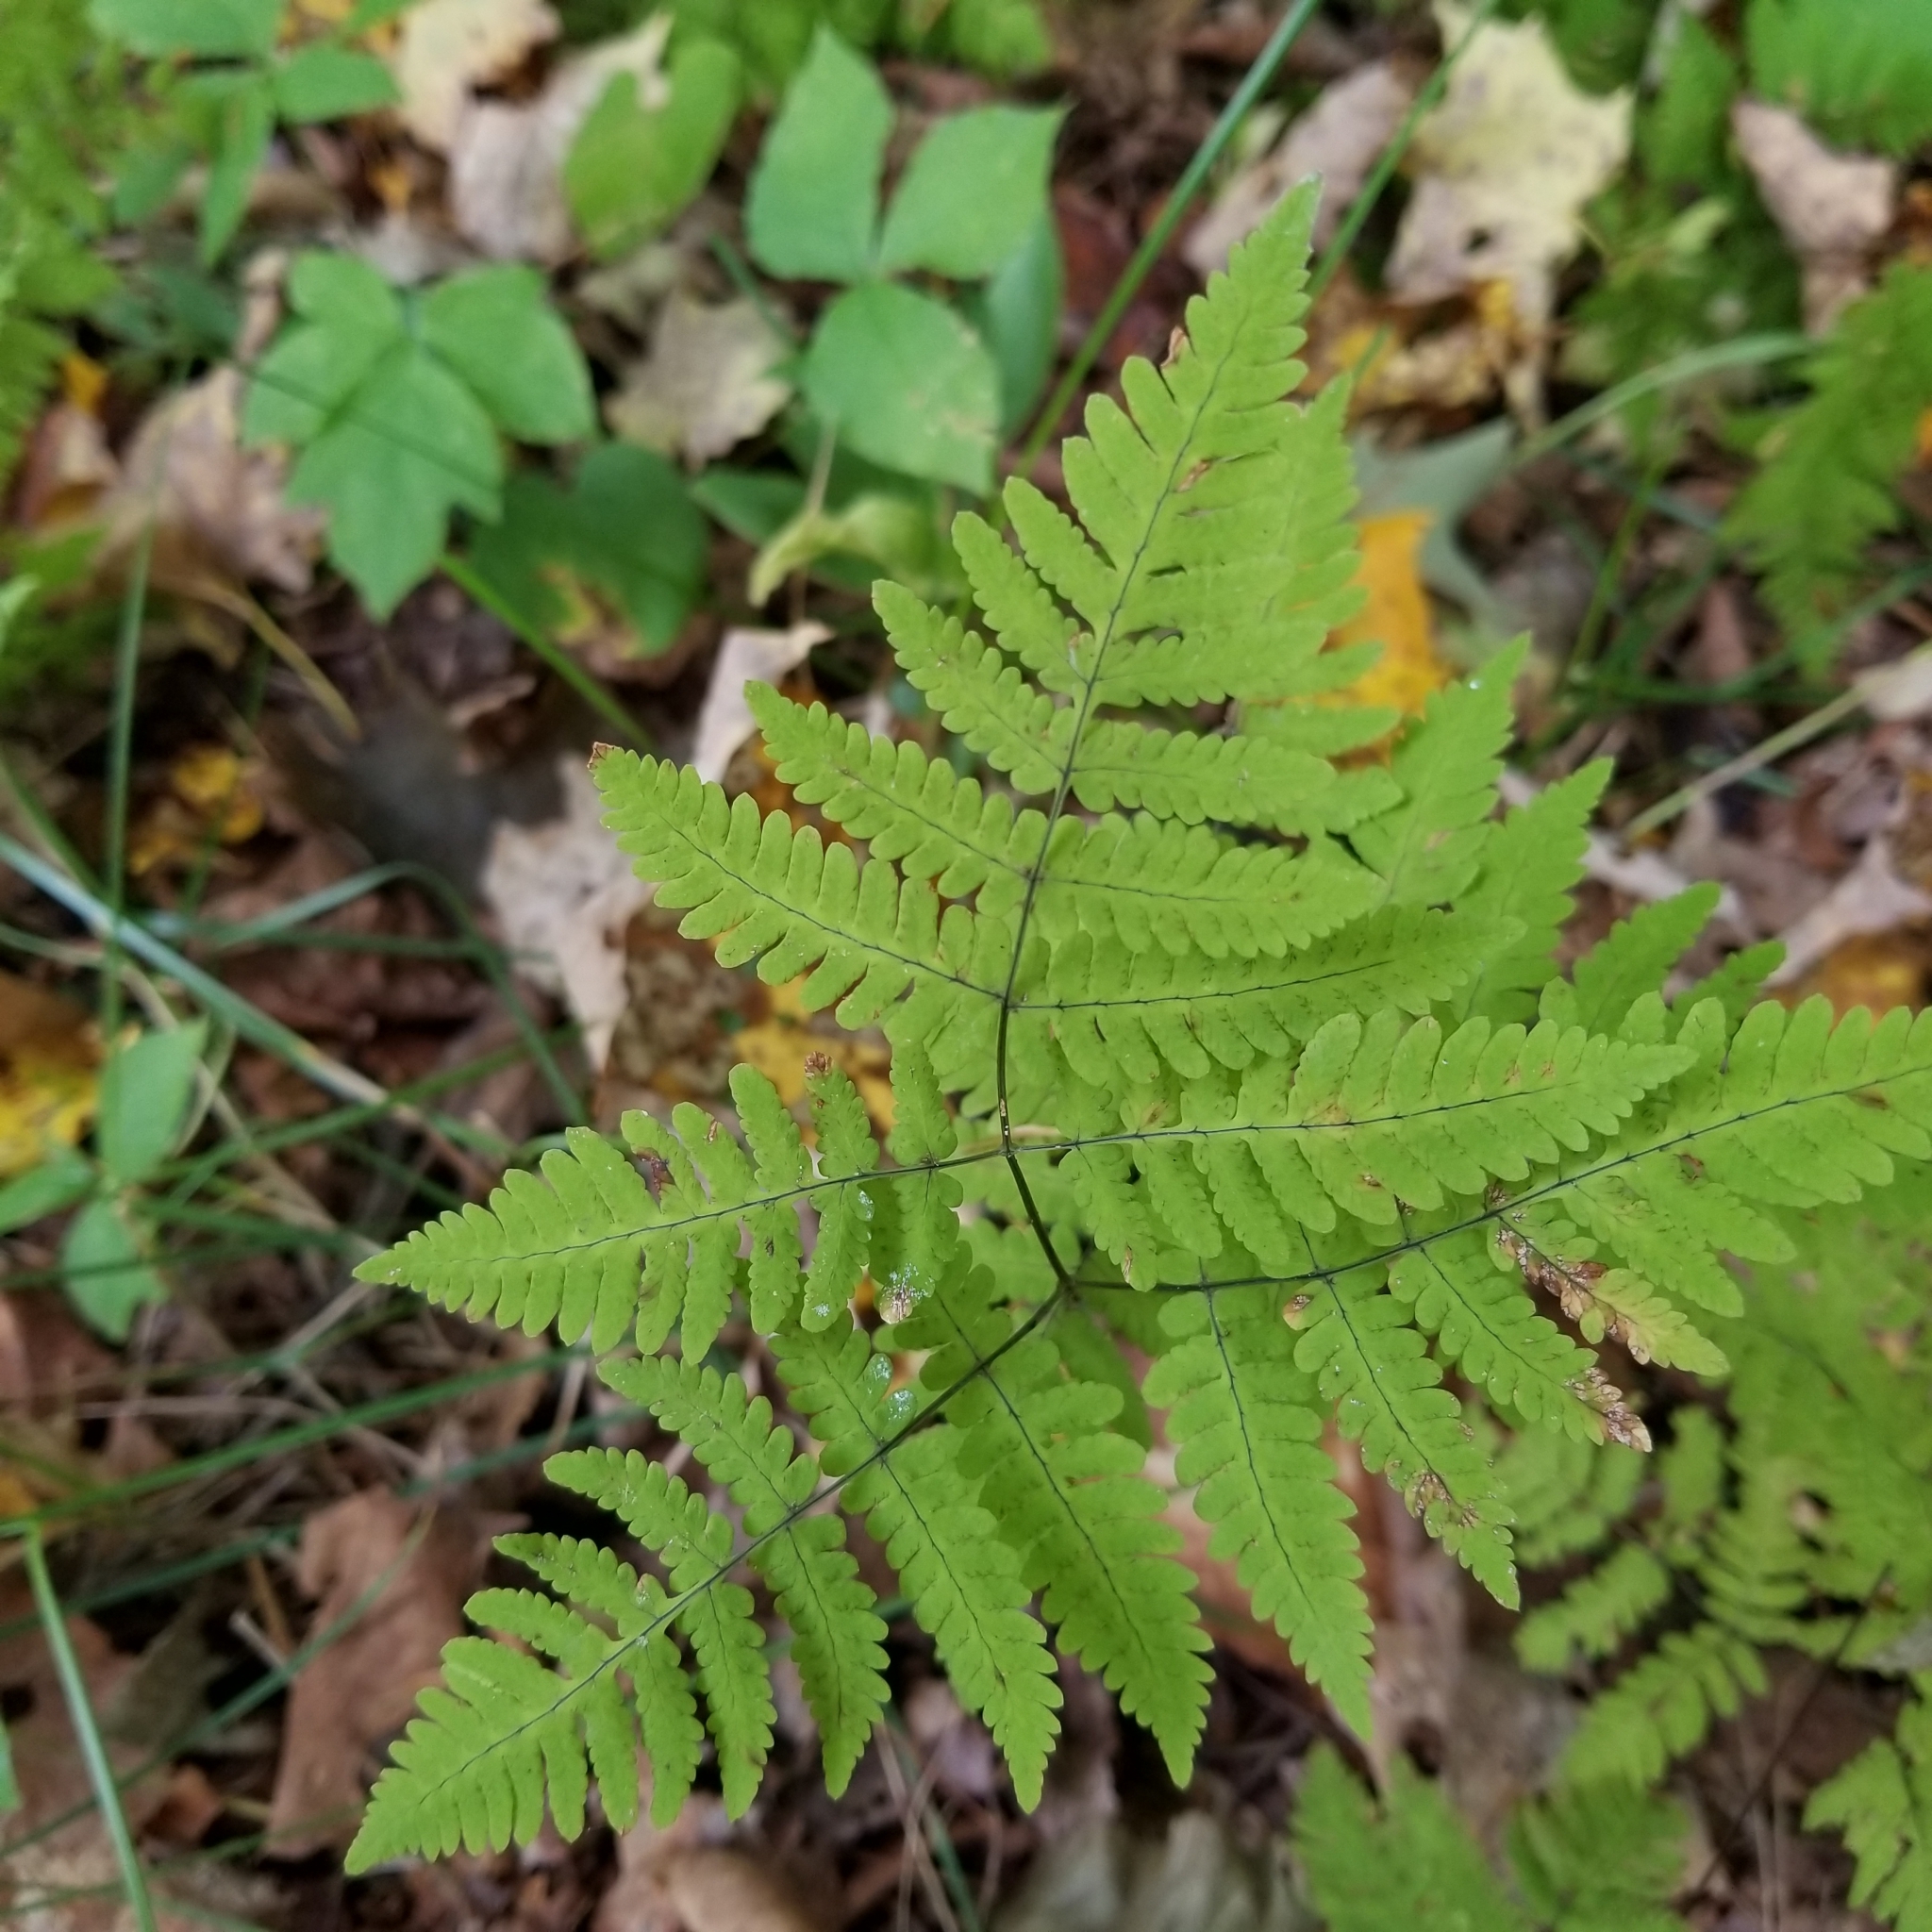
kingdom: Plantae
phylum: Tracheophyta
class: Polypodiopsida
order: Polypodiales
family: Cystopteridaceae
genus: Gymnocarpium
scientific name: Gymnocarpium dryopteris
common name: Oak fern
